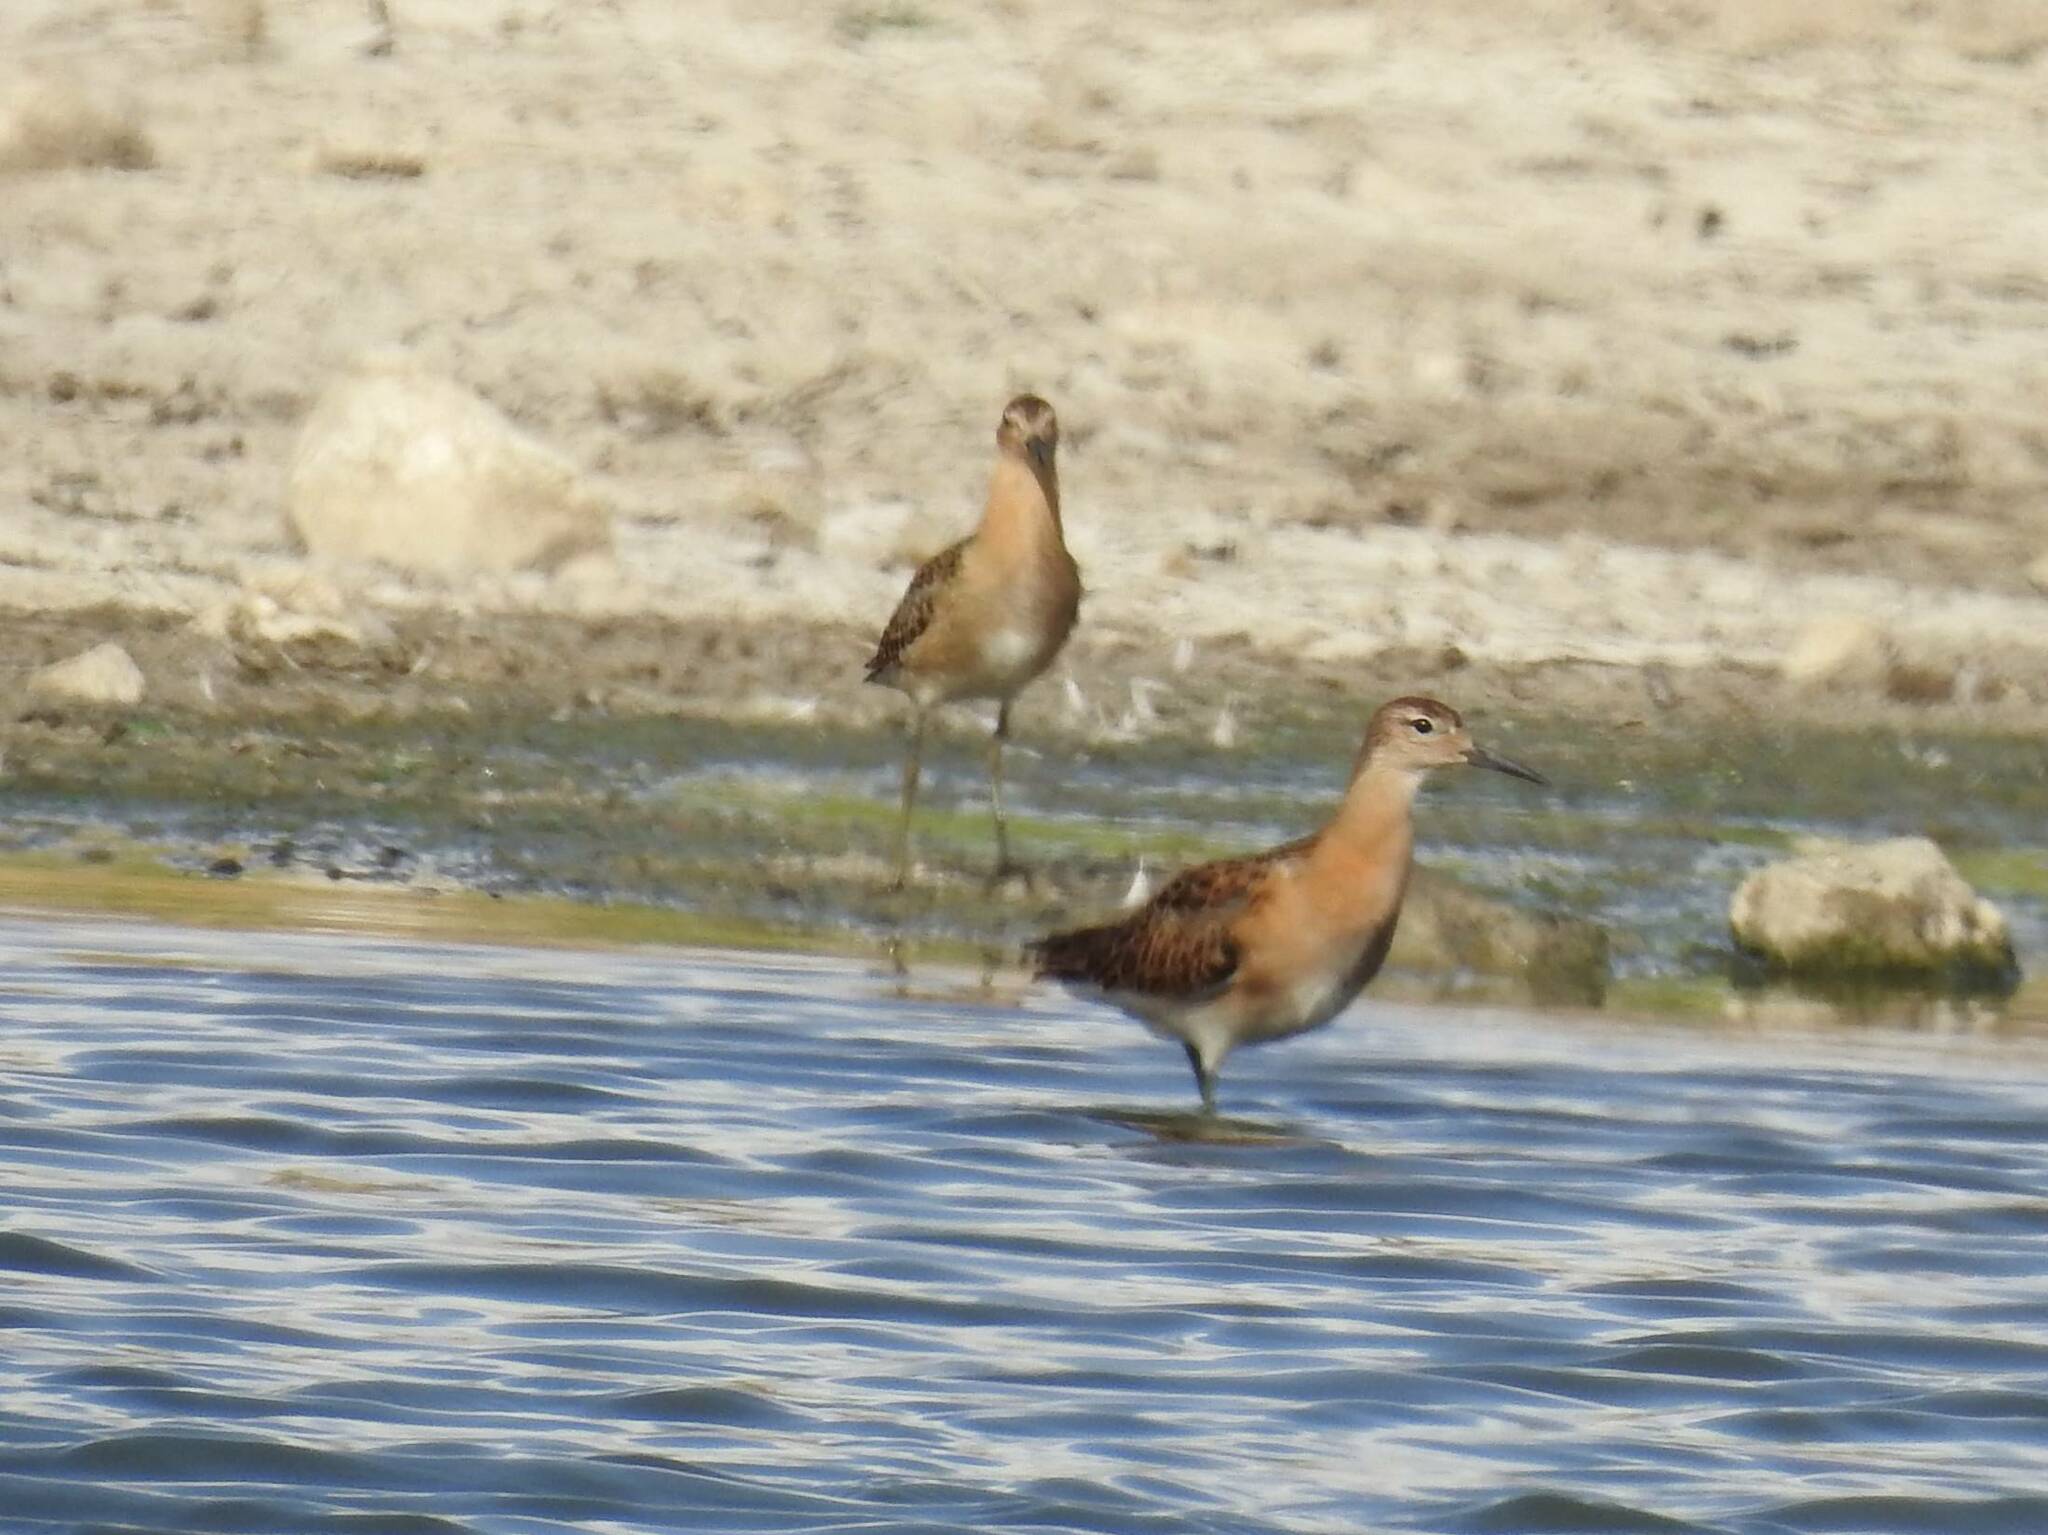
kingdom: Animalia
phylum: Chordata
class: Aves
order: Charadriiformes
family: Scolopacidae
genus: Calidris
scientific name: Calidris pugnax
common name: Ruff
